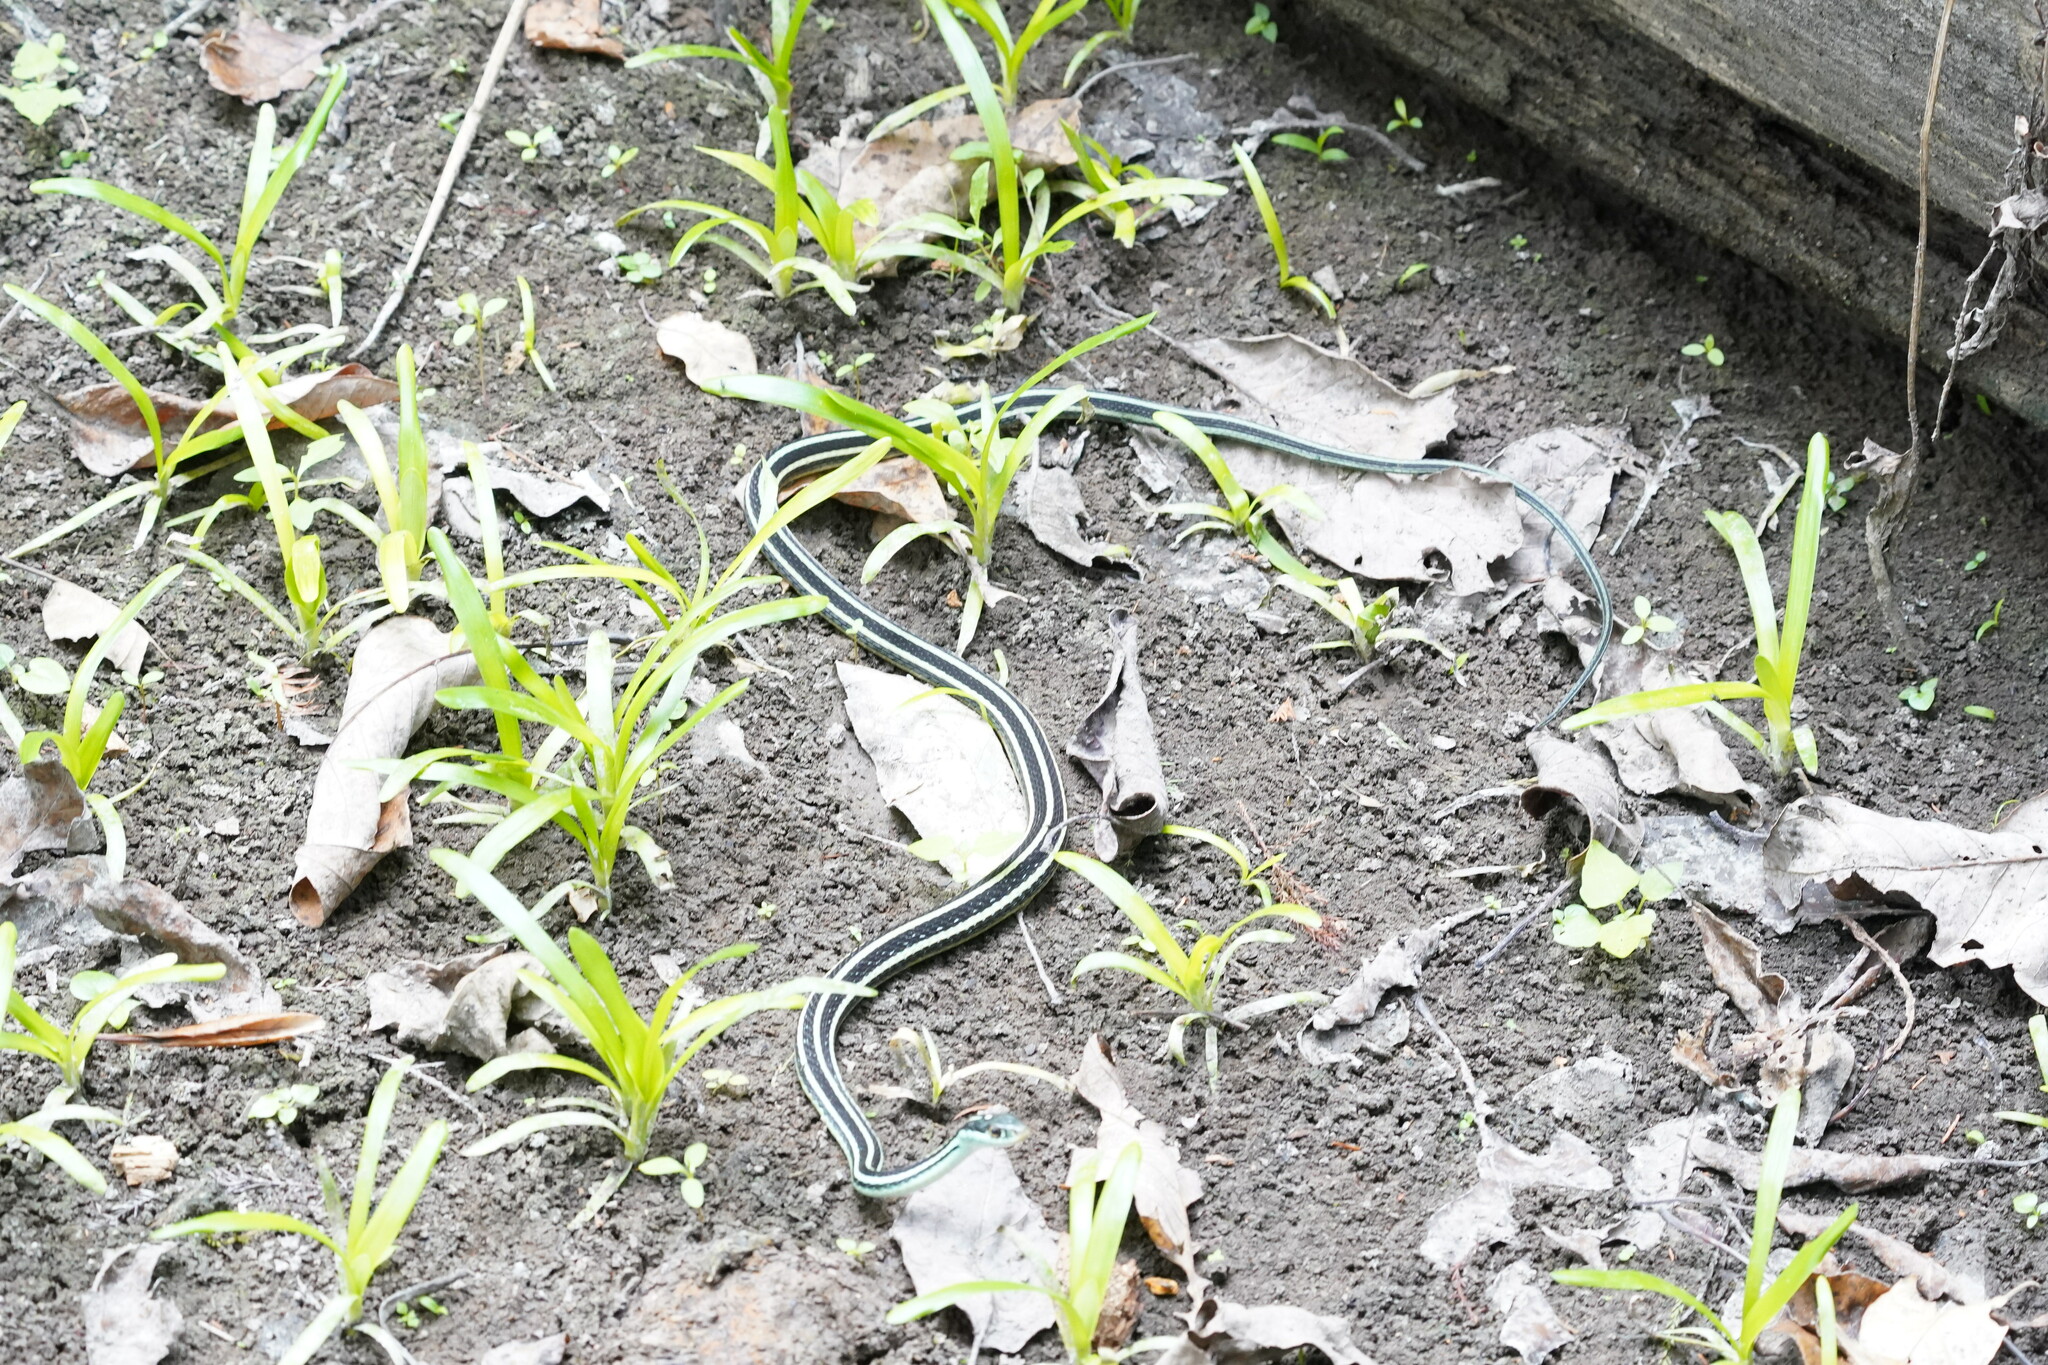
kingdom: Animalia
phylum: Chordata
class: Squamata
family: Colubridae
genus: Thamnophis
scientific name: Thamnophis proximus
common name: Western ribbon snake
